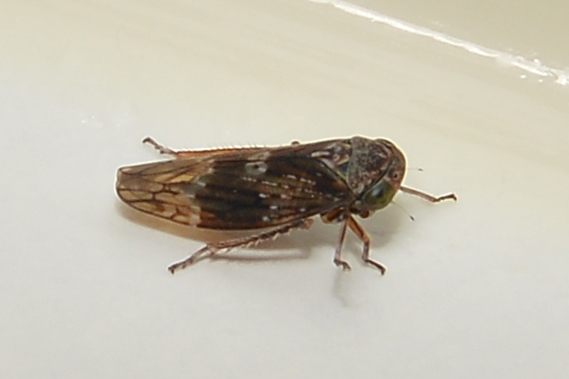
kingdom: Animalia
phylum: Arthropoda
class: Insecta
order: Hemiptera
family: Cicadellidae
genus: Metidiocerus
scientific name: Metidiocerus rutilans
